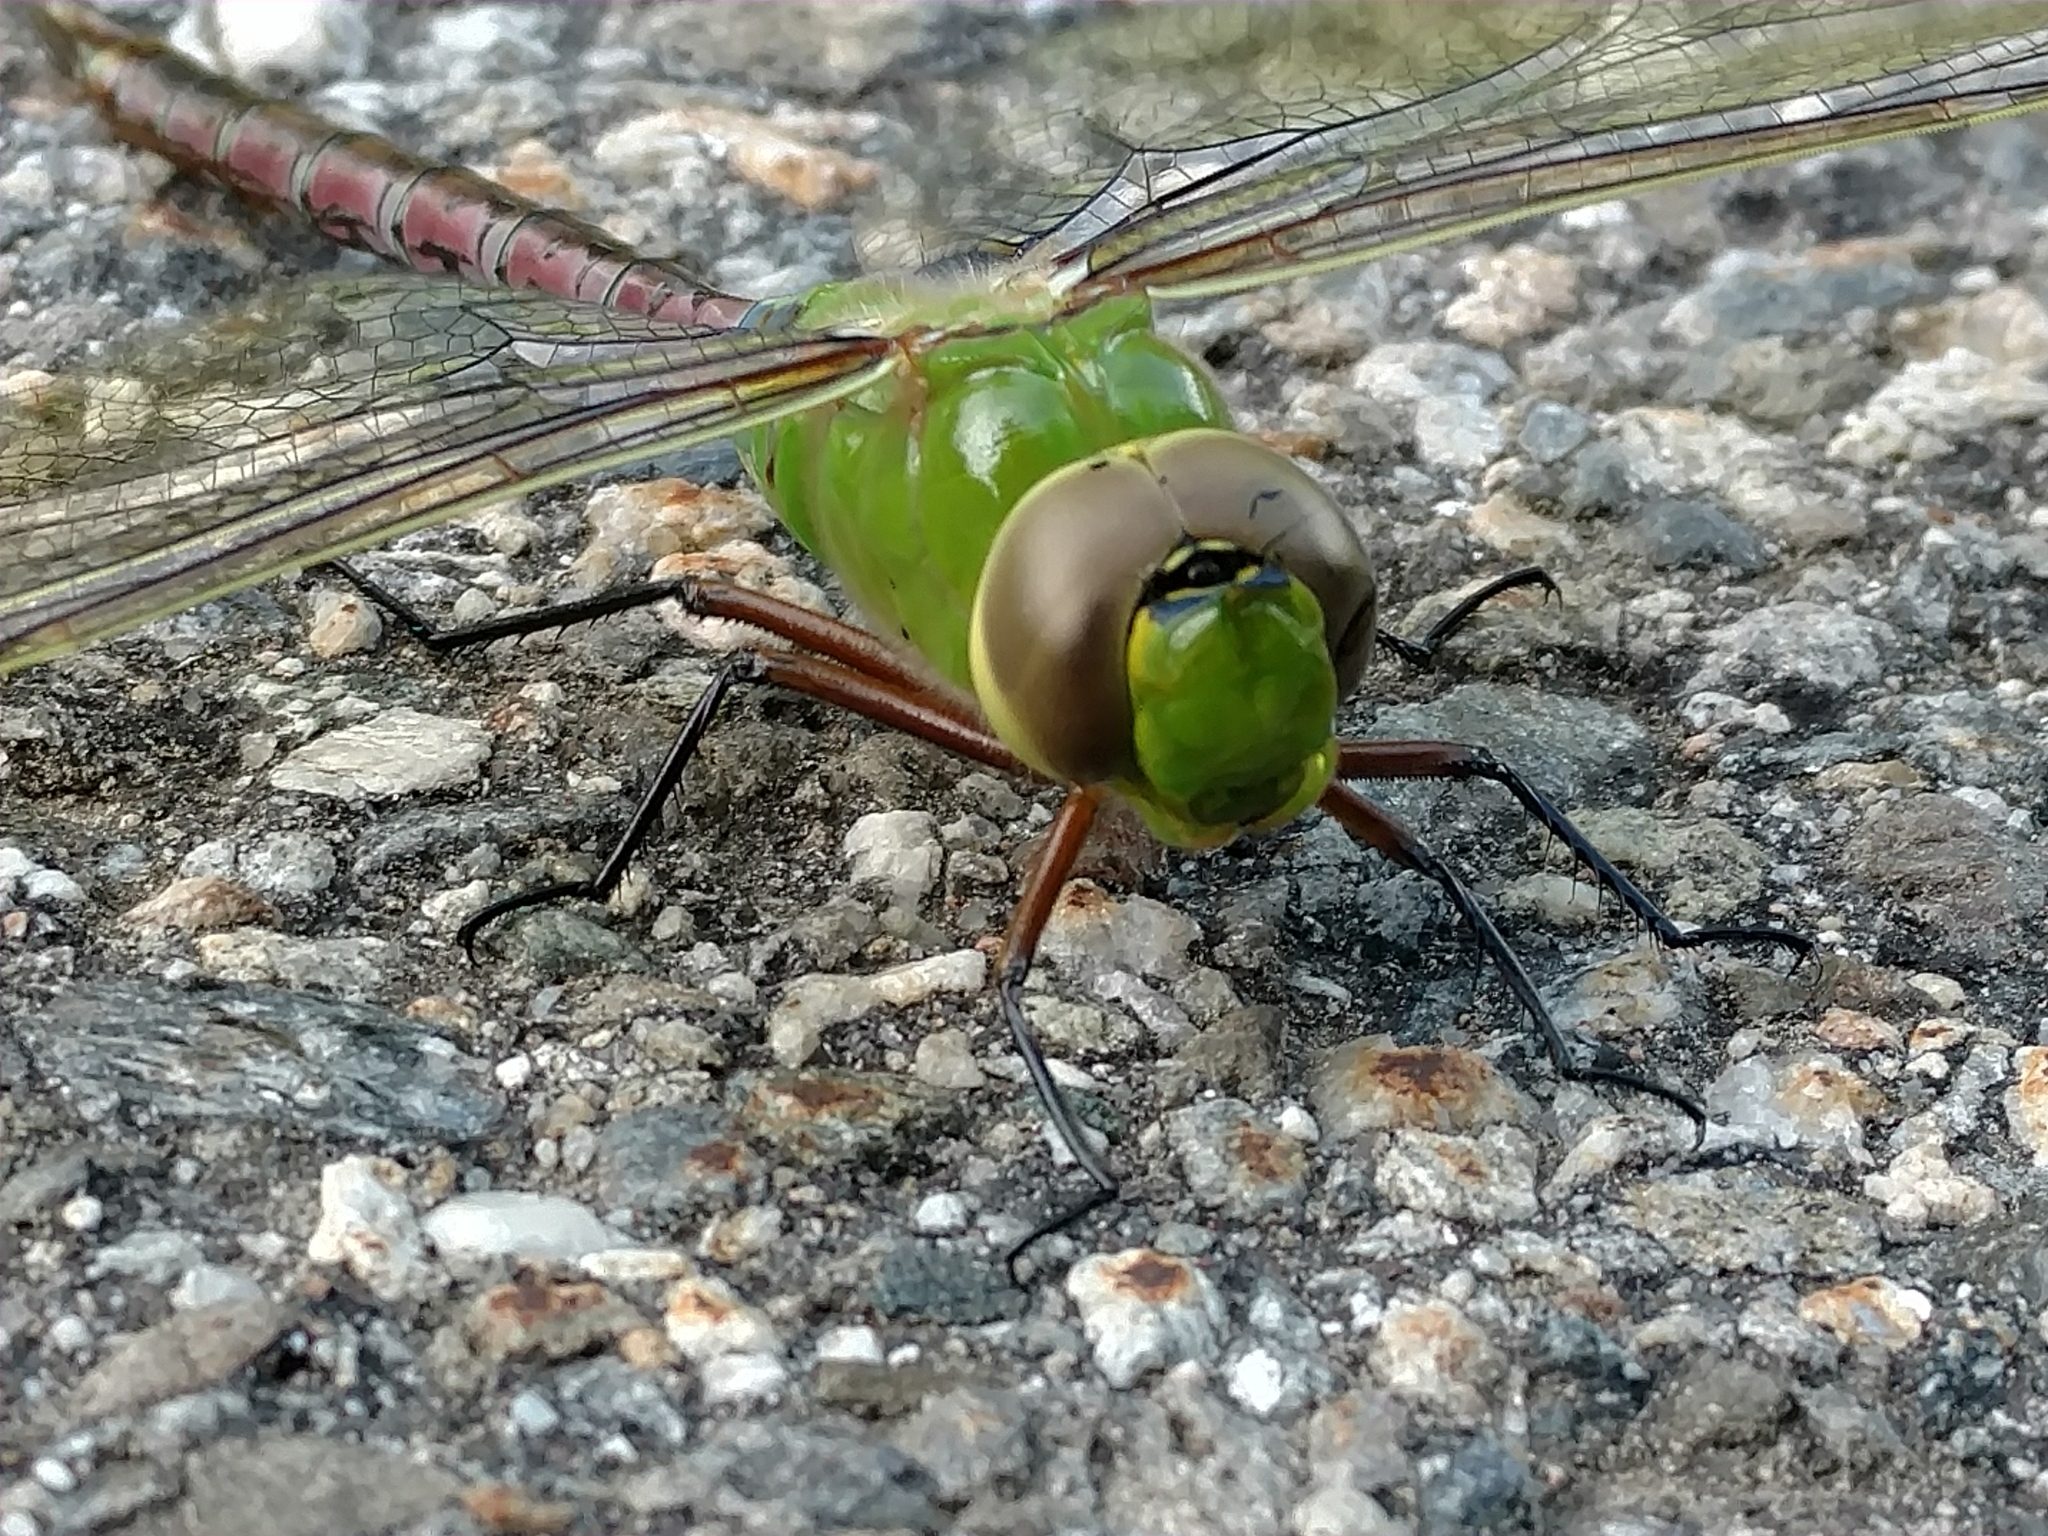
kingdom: Animalia
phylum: Arthropoda
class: Insecta
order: Odonata
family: Aeshnidae
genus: Anax
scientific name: Anax junius
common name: Common green darner
